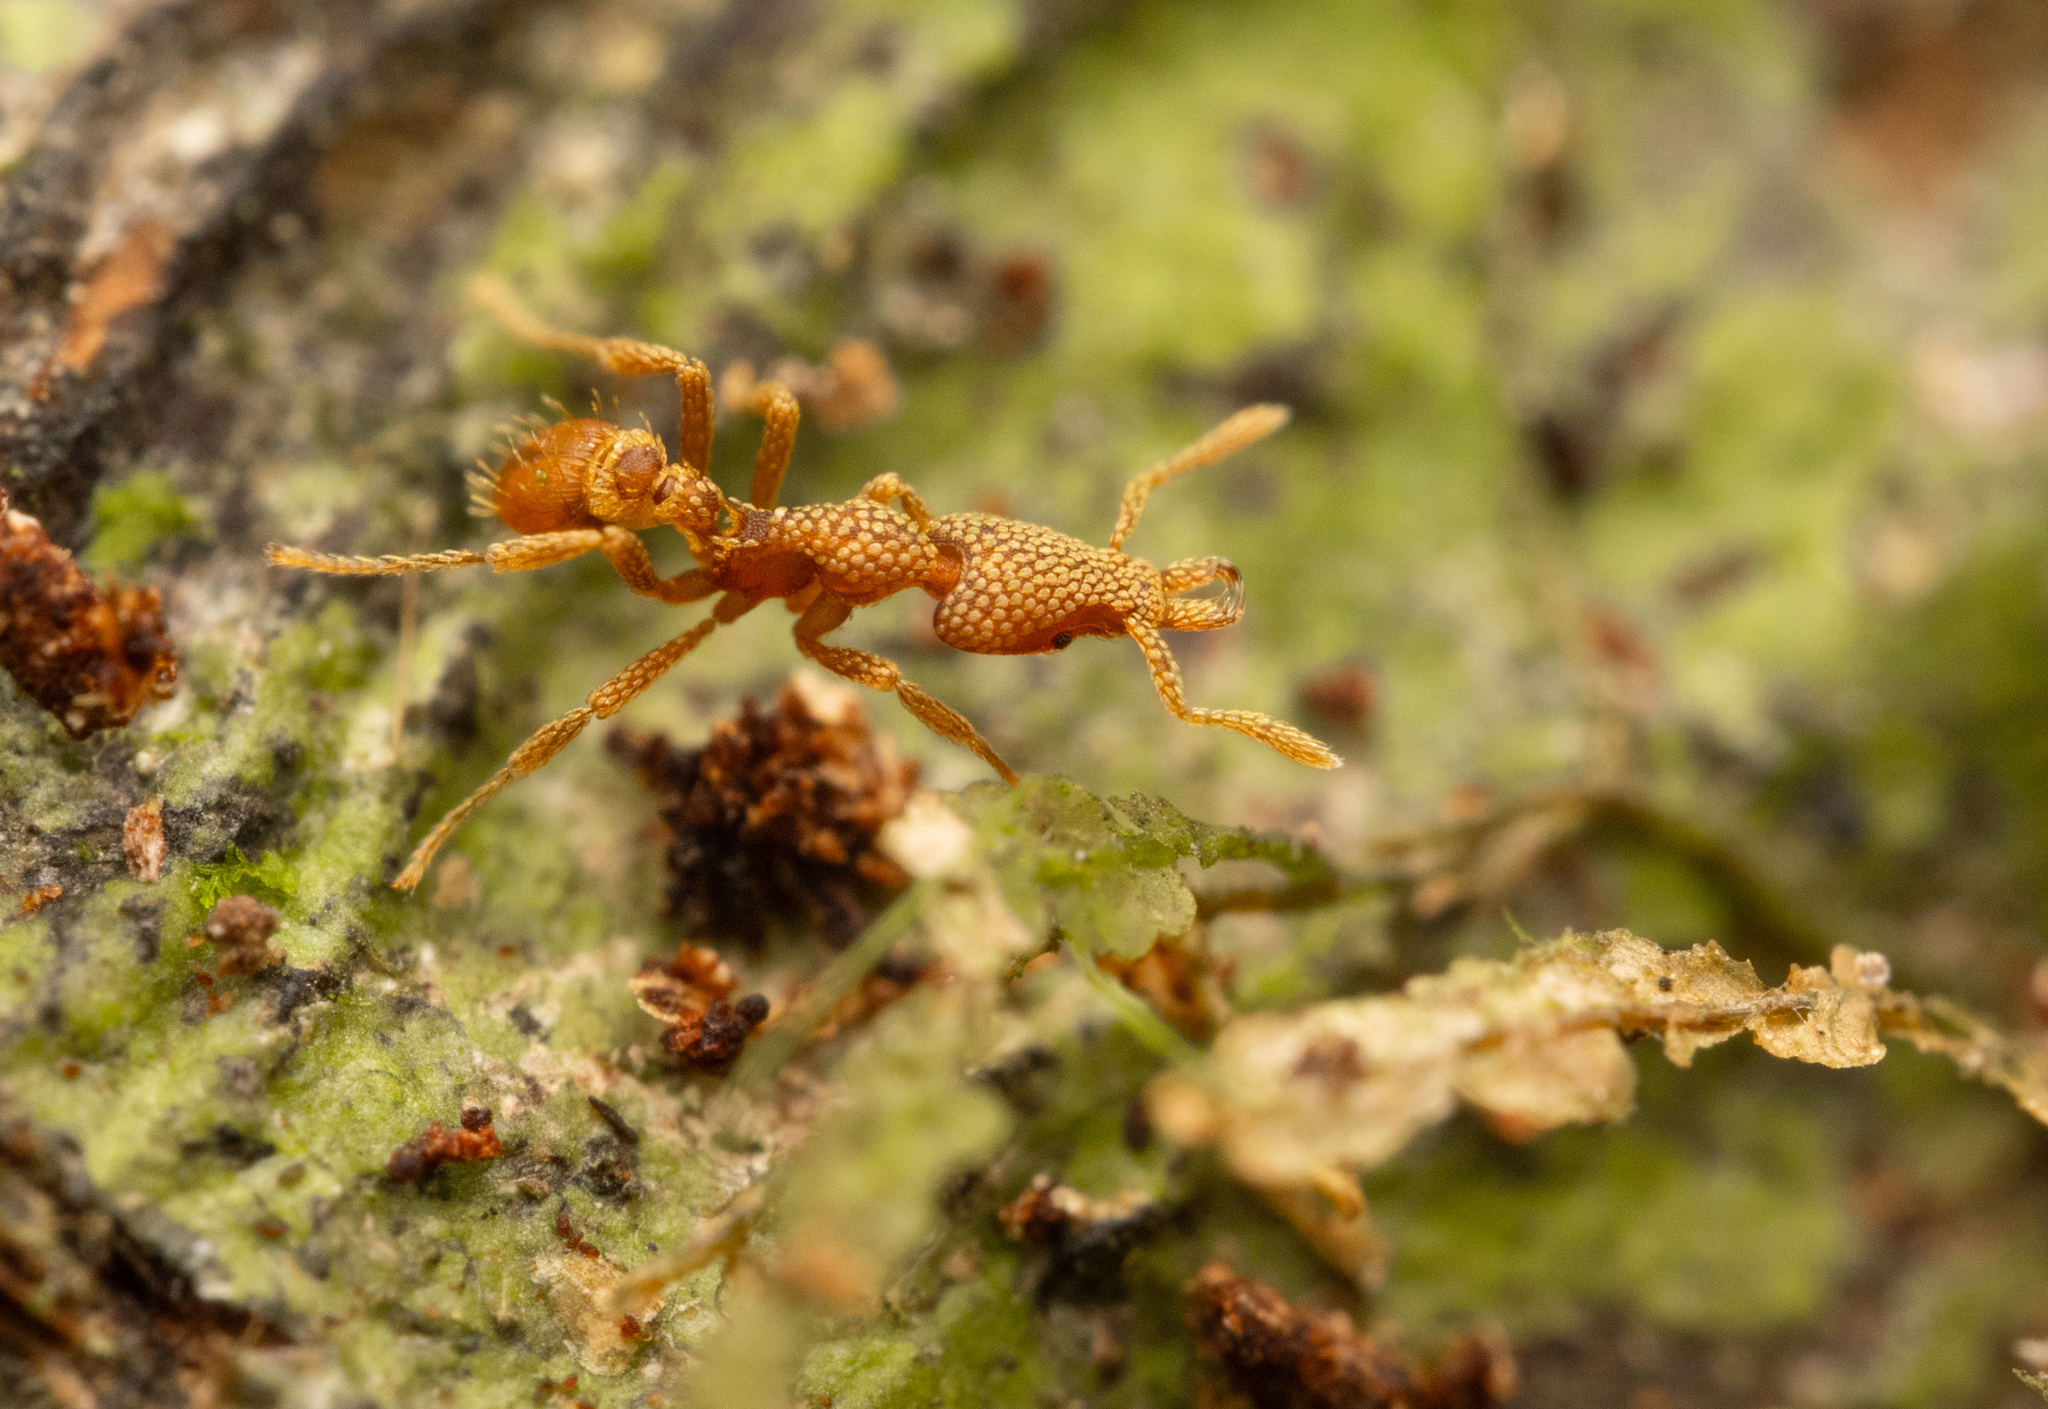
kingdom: Animalia
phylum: Arthropoda
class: Insecta
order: Hymenoptera
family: Formicidae
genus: Strumigenys
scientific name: Strumigenys horvathi
